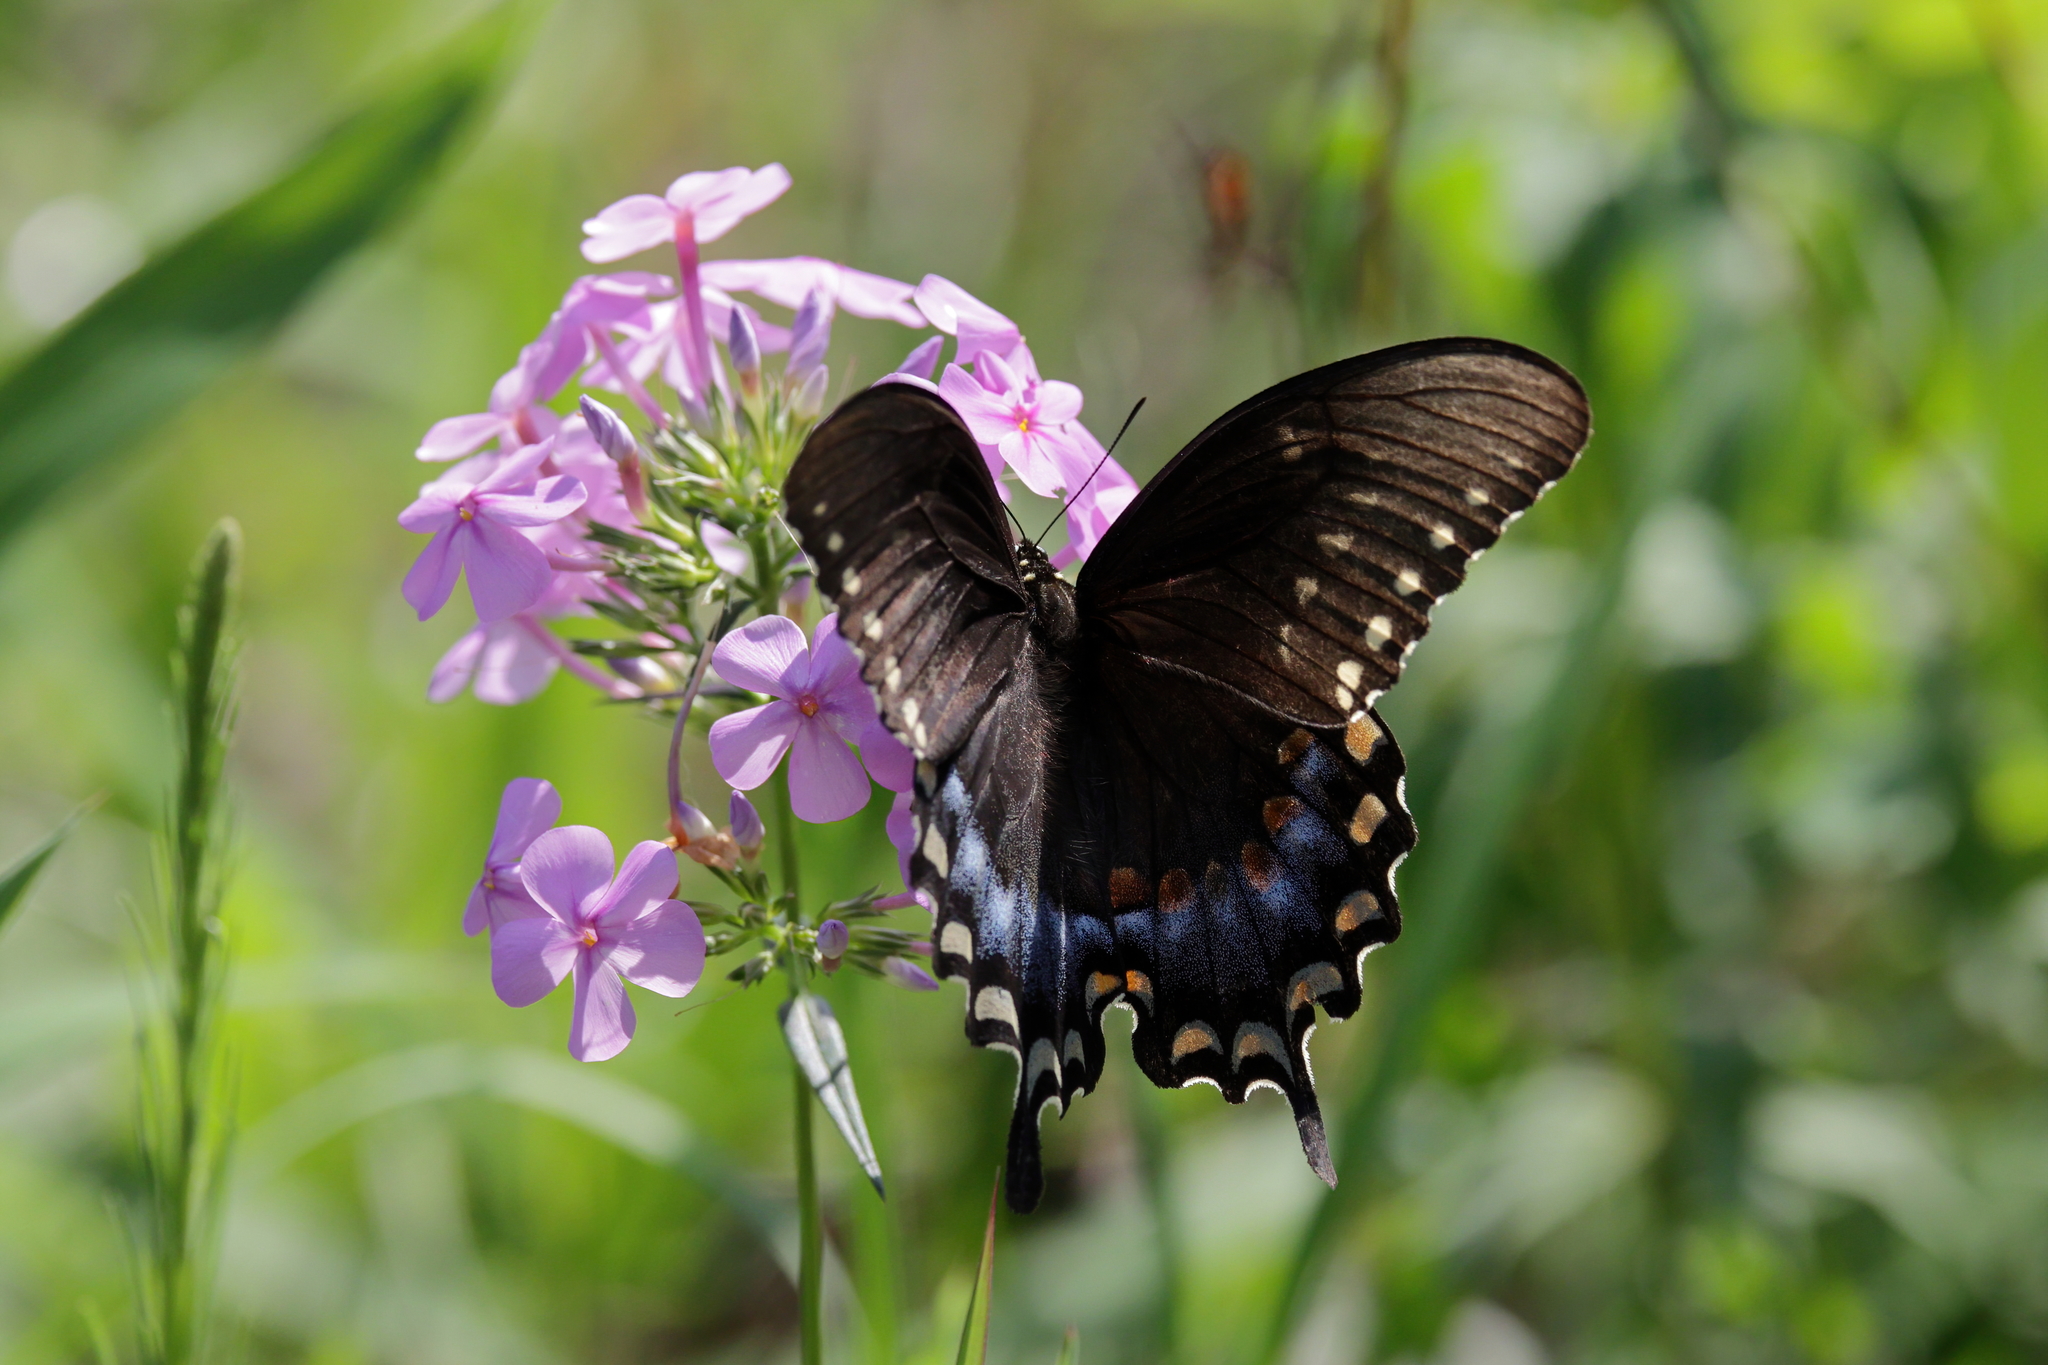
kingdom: Animalia
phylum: Arthropoda
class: Insecta
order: Lepidoptera
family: Papilionidae
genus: Papilio
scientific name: Papilio troilus
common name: Spicebush swallowtail
